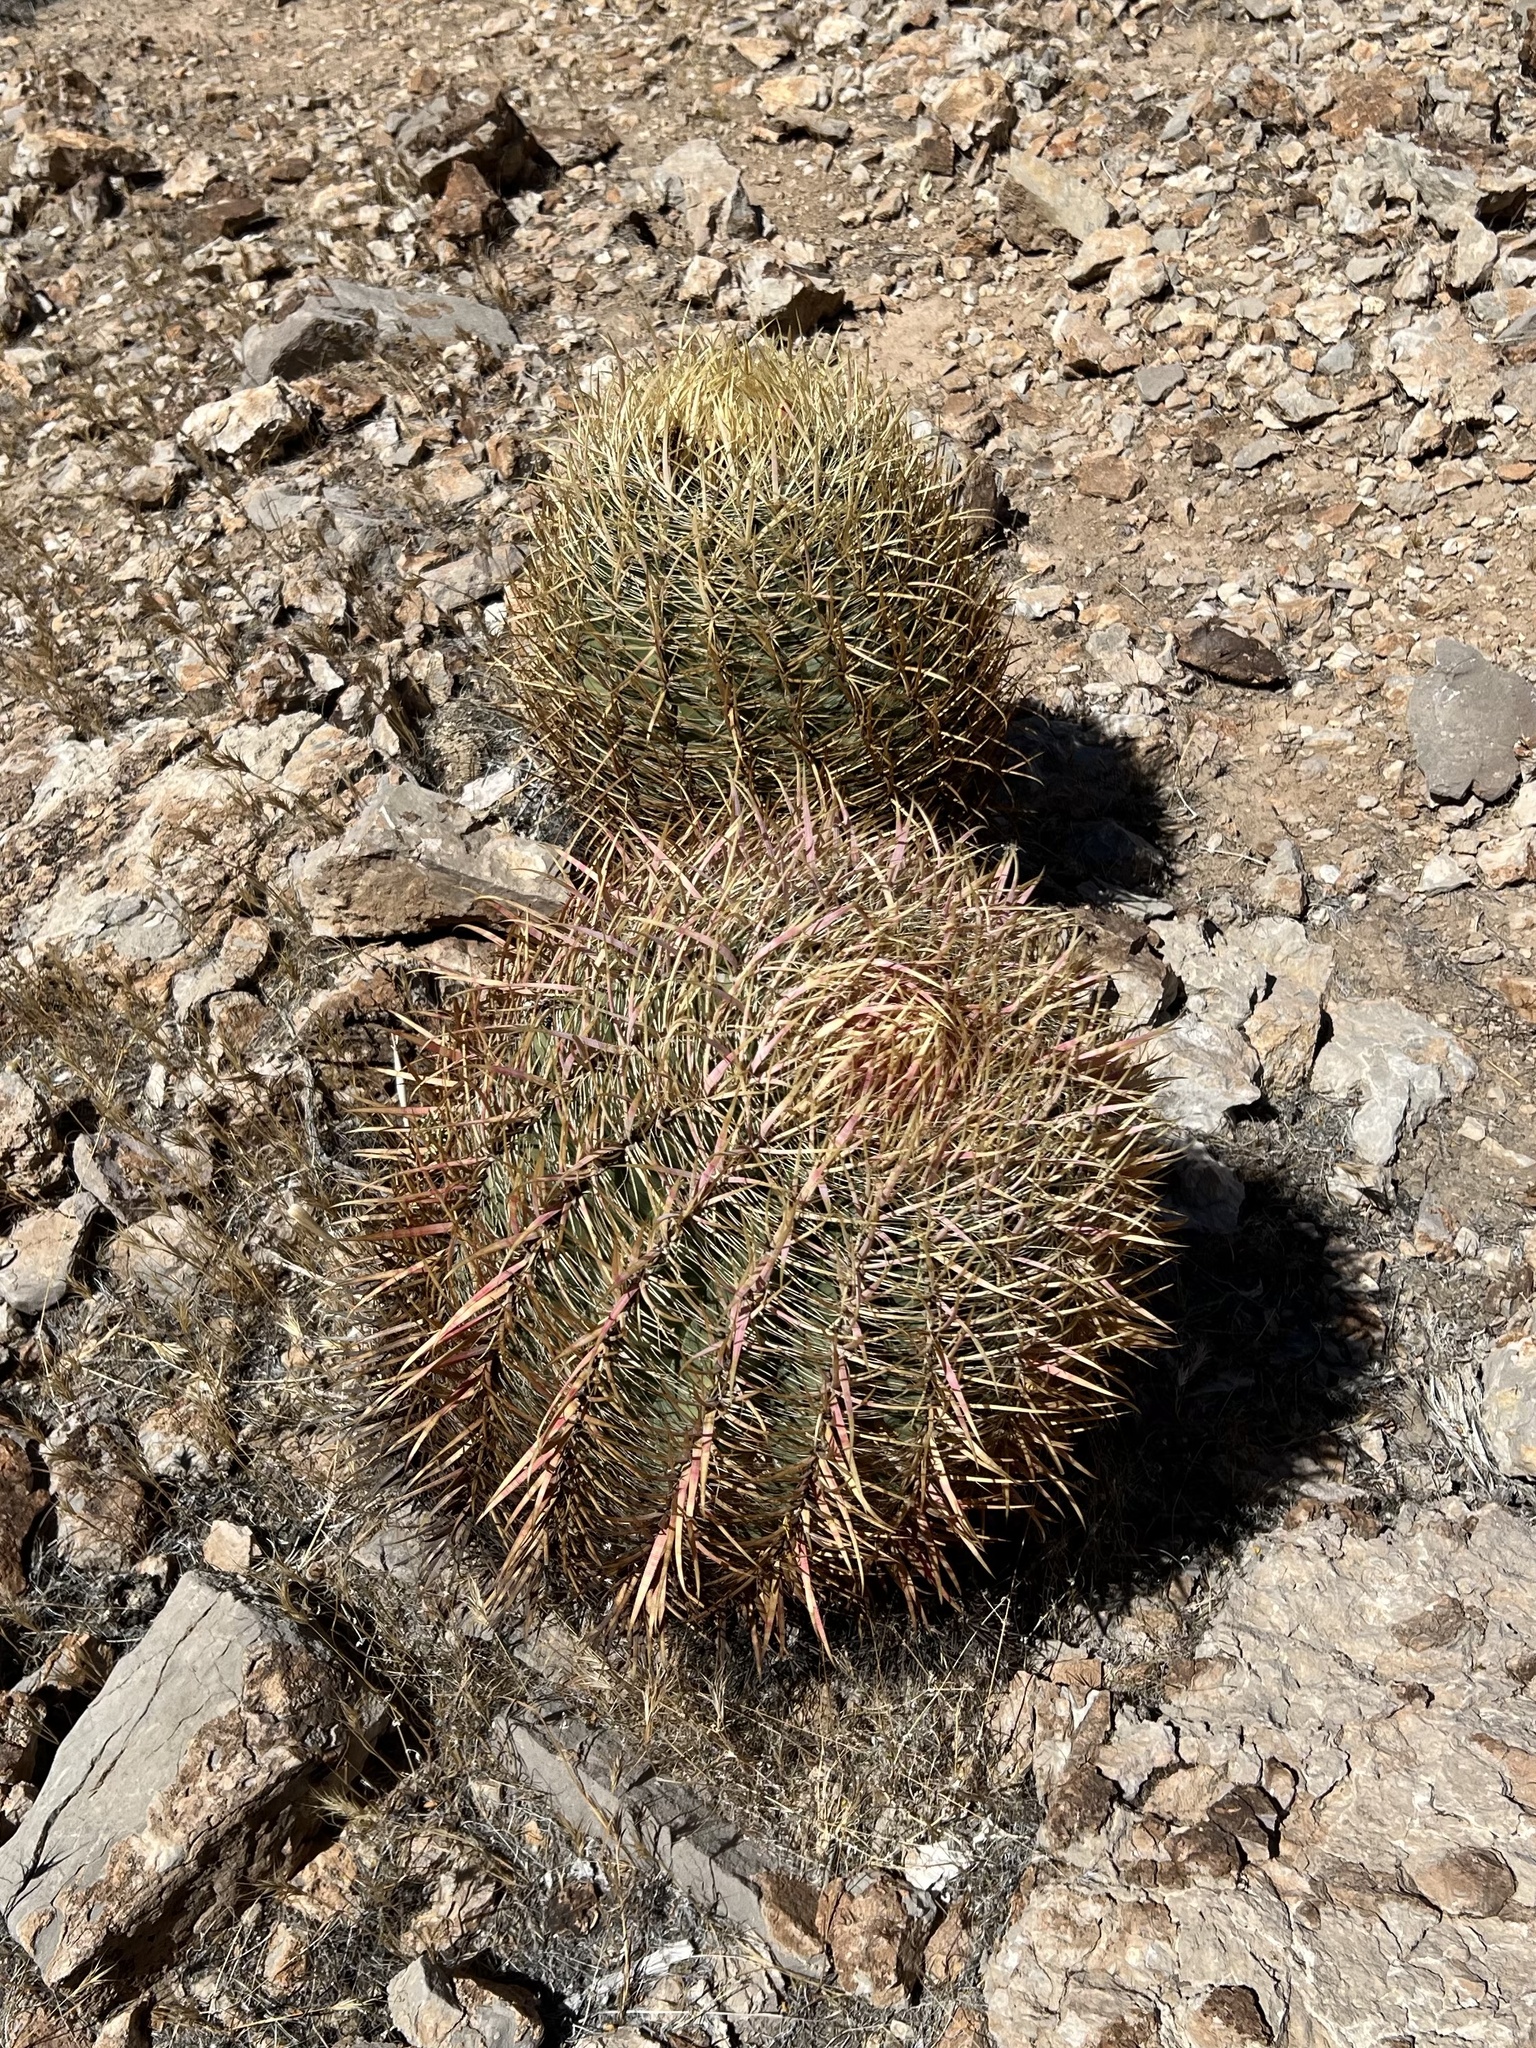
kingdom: Plantae
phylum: Tracheophyta
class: Magnoliopsida
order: Caryophyllales
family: Cactaceae
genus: Ferocactus
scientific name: Ferocactus cylindraceus
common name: California barrel cactus
